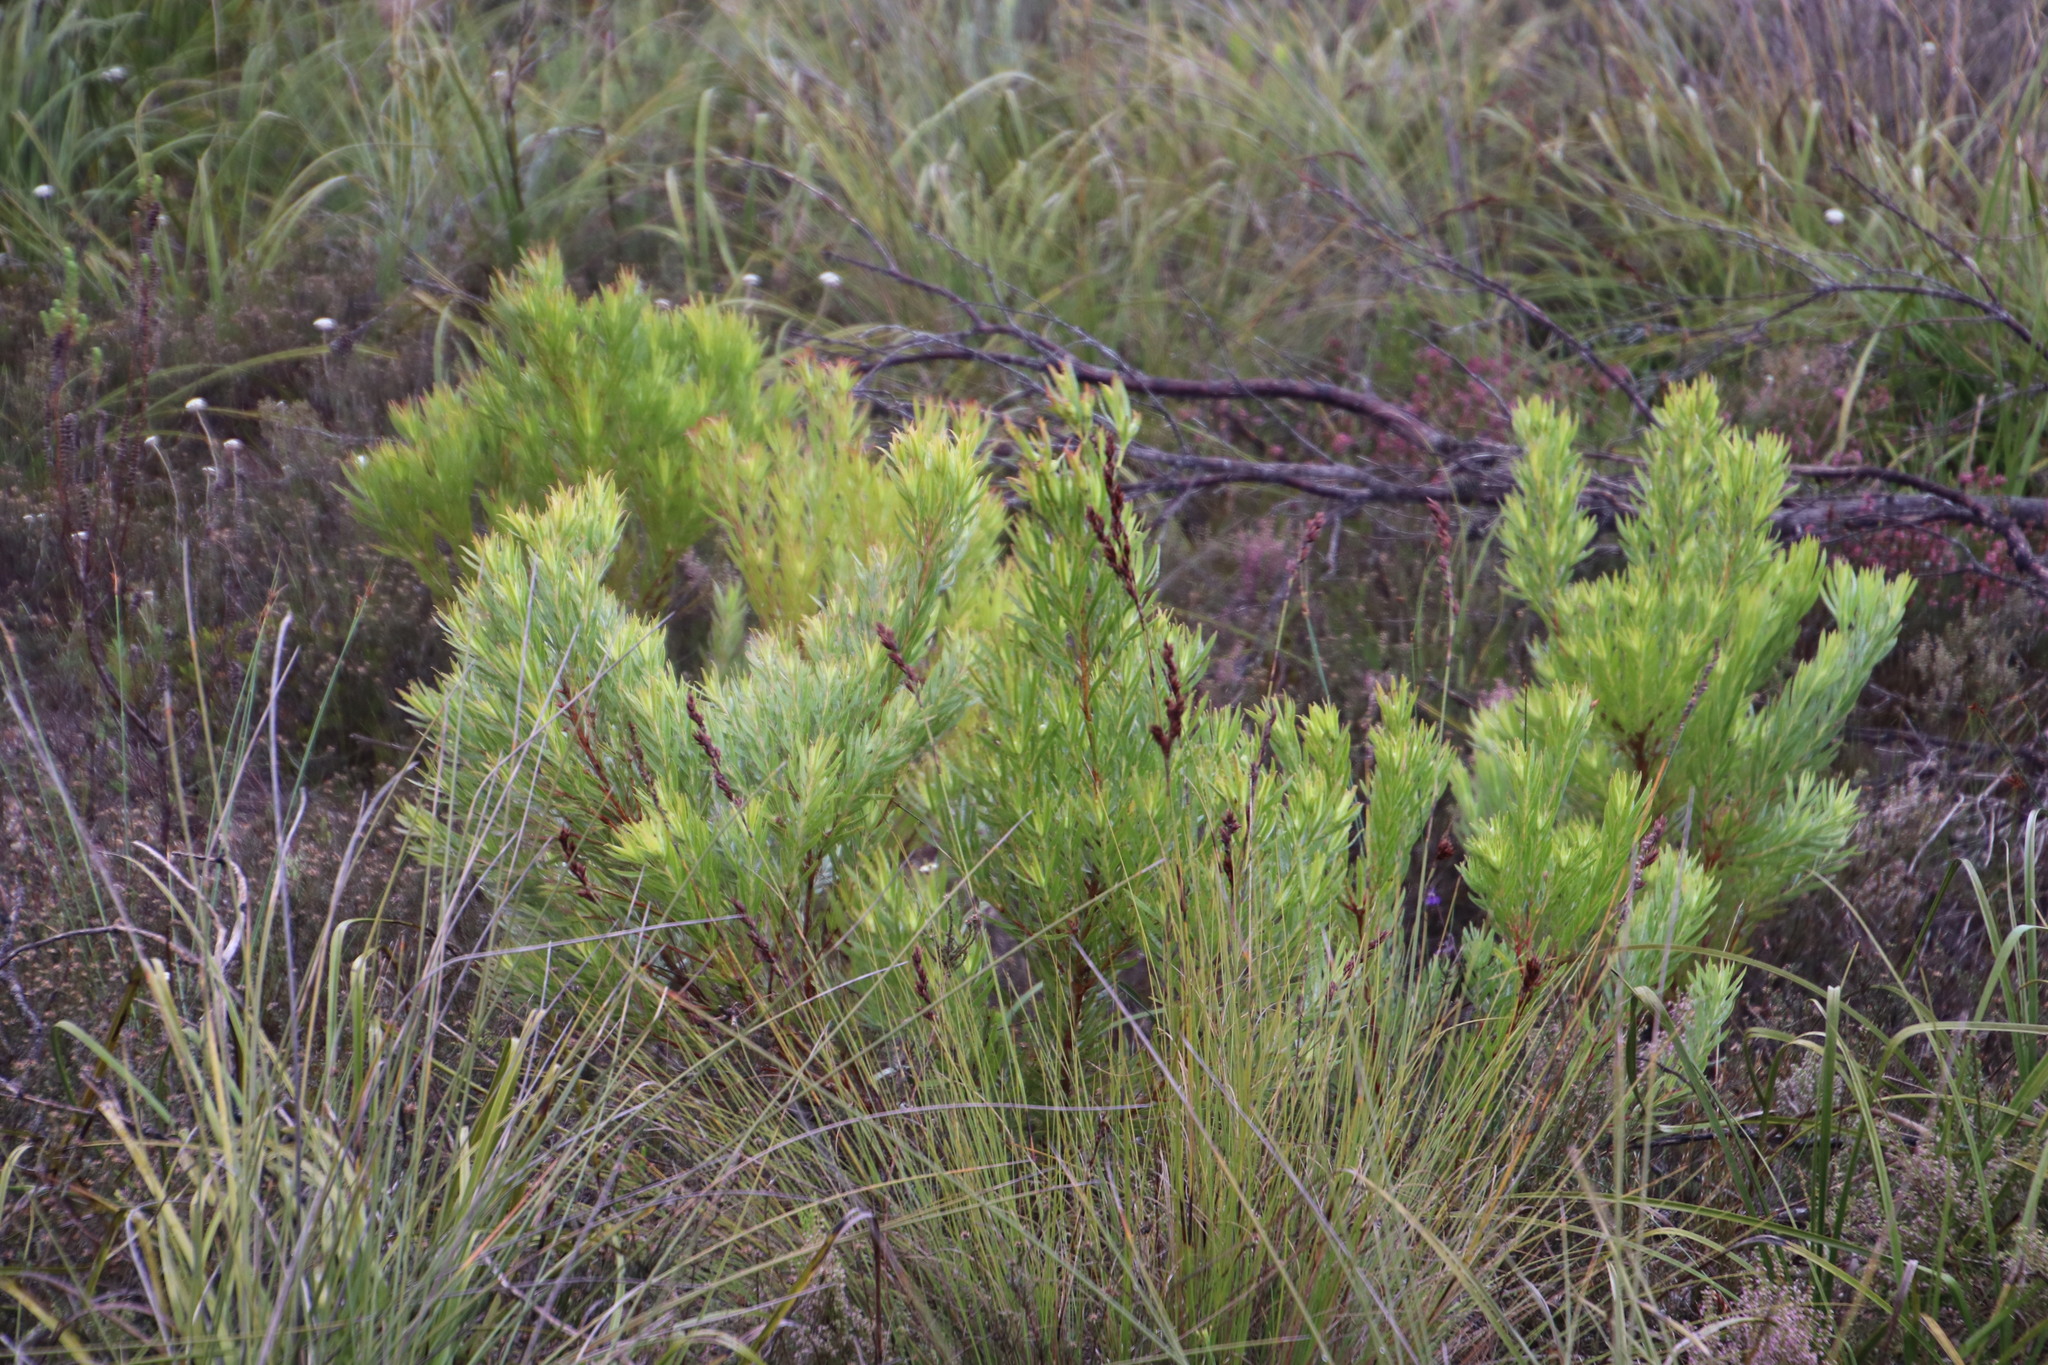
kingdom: Plantae
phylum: Tracheophyta
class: Magnoliopsida
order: Proteales
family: Proteaceae
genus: Leucadendron
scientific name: Leucadendron xanthoconus
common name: Sickle-leaf conebush
